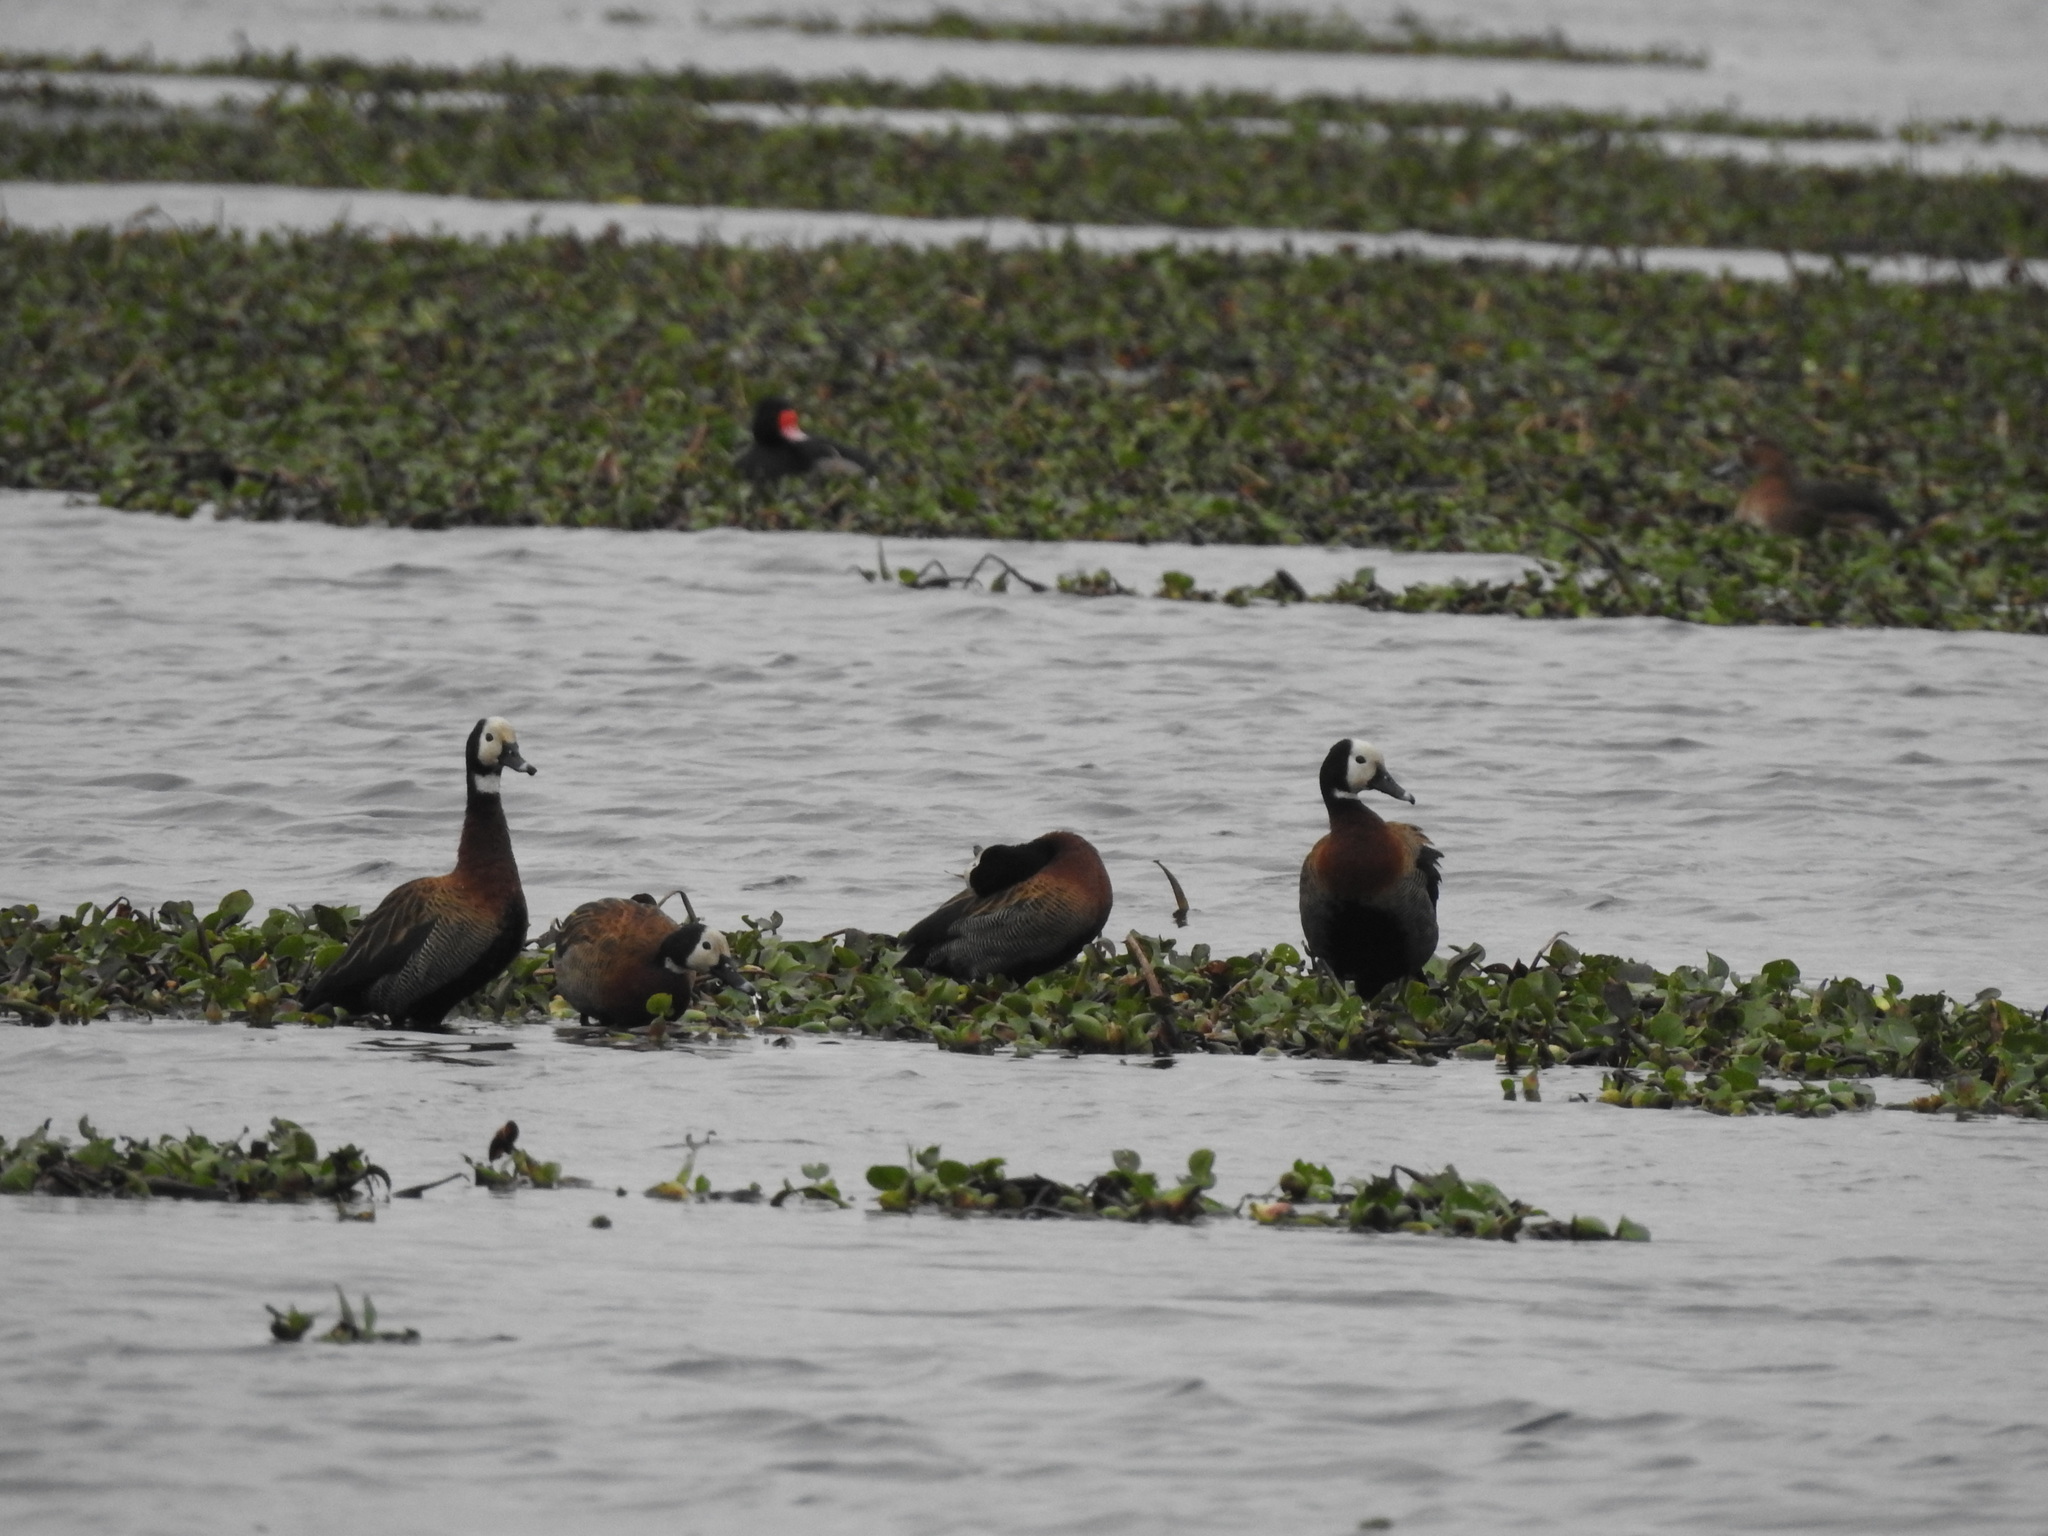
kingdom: Animalia
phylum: Chordata
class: Aves
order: Anseriformes
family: Anatidae
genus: Dendrocygna
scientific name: Dendrocygna viduata
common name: White-faced whistling duck
